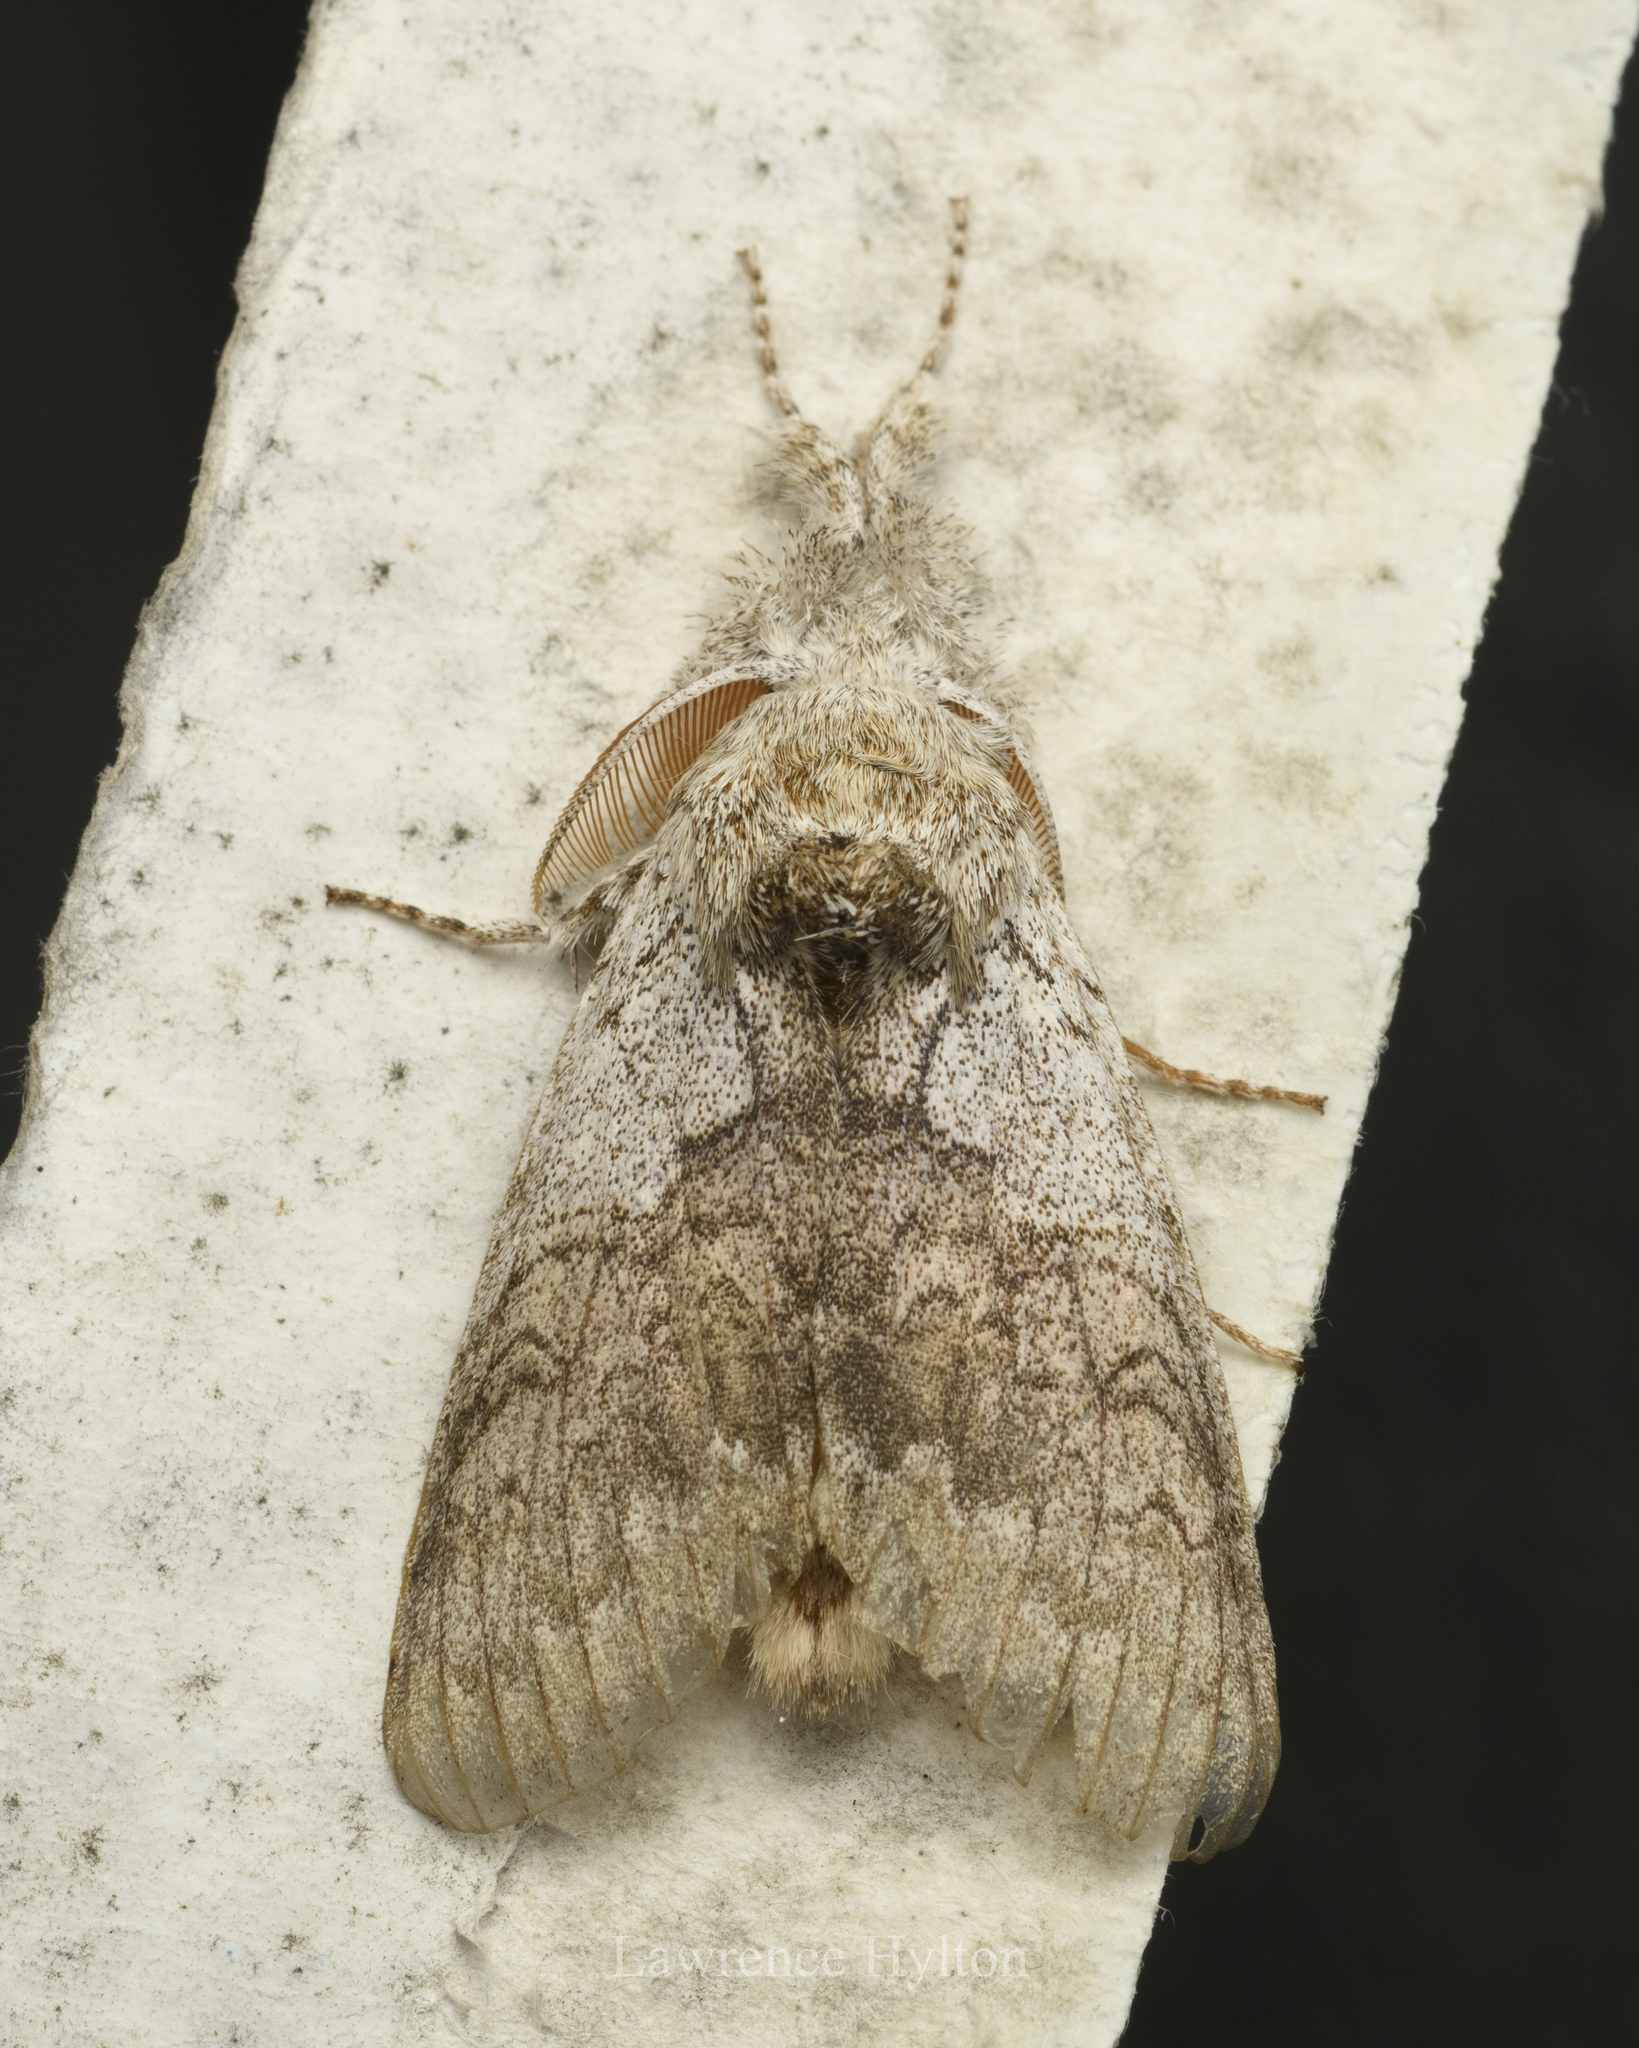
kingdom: Animalia
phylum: Arthropoda
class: Insecta
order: Lepidoptera
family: Erebidae
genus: Calliteara
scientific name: Calliteara grotei
